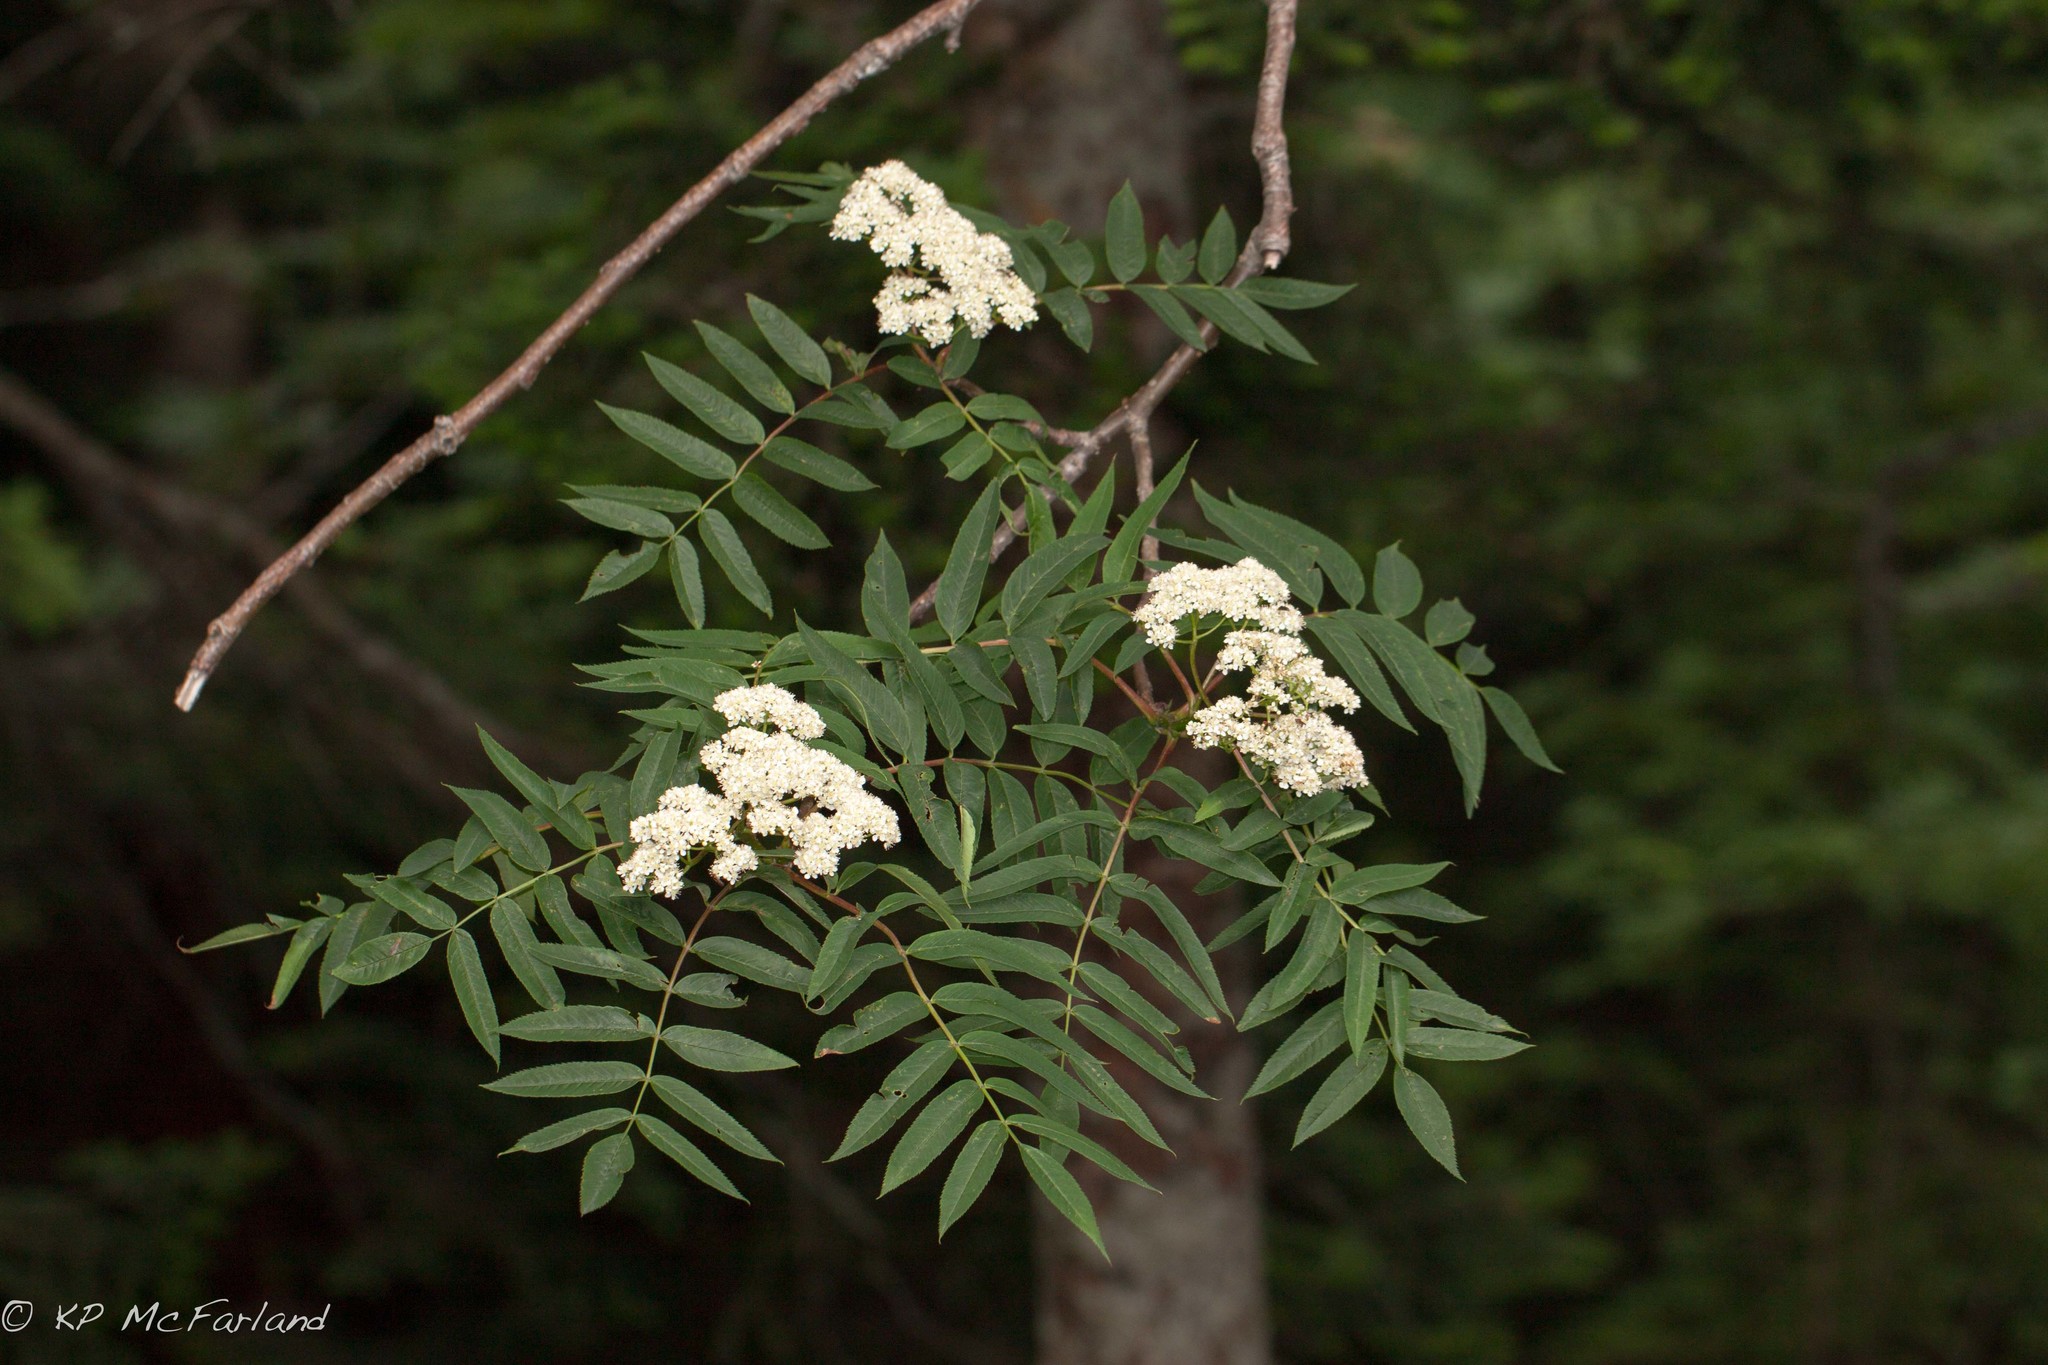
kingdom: Plantae
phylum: Tracheophyta
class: Magnoliopsida
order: Rosales
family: Rosaceae
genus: Sorbus
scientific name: Sorbus americana
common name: American mountain-ash
